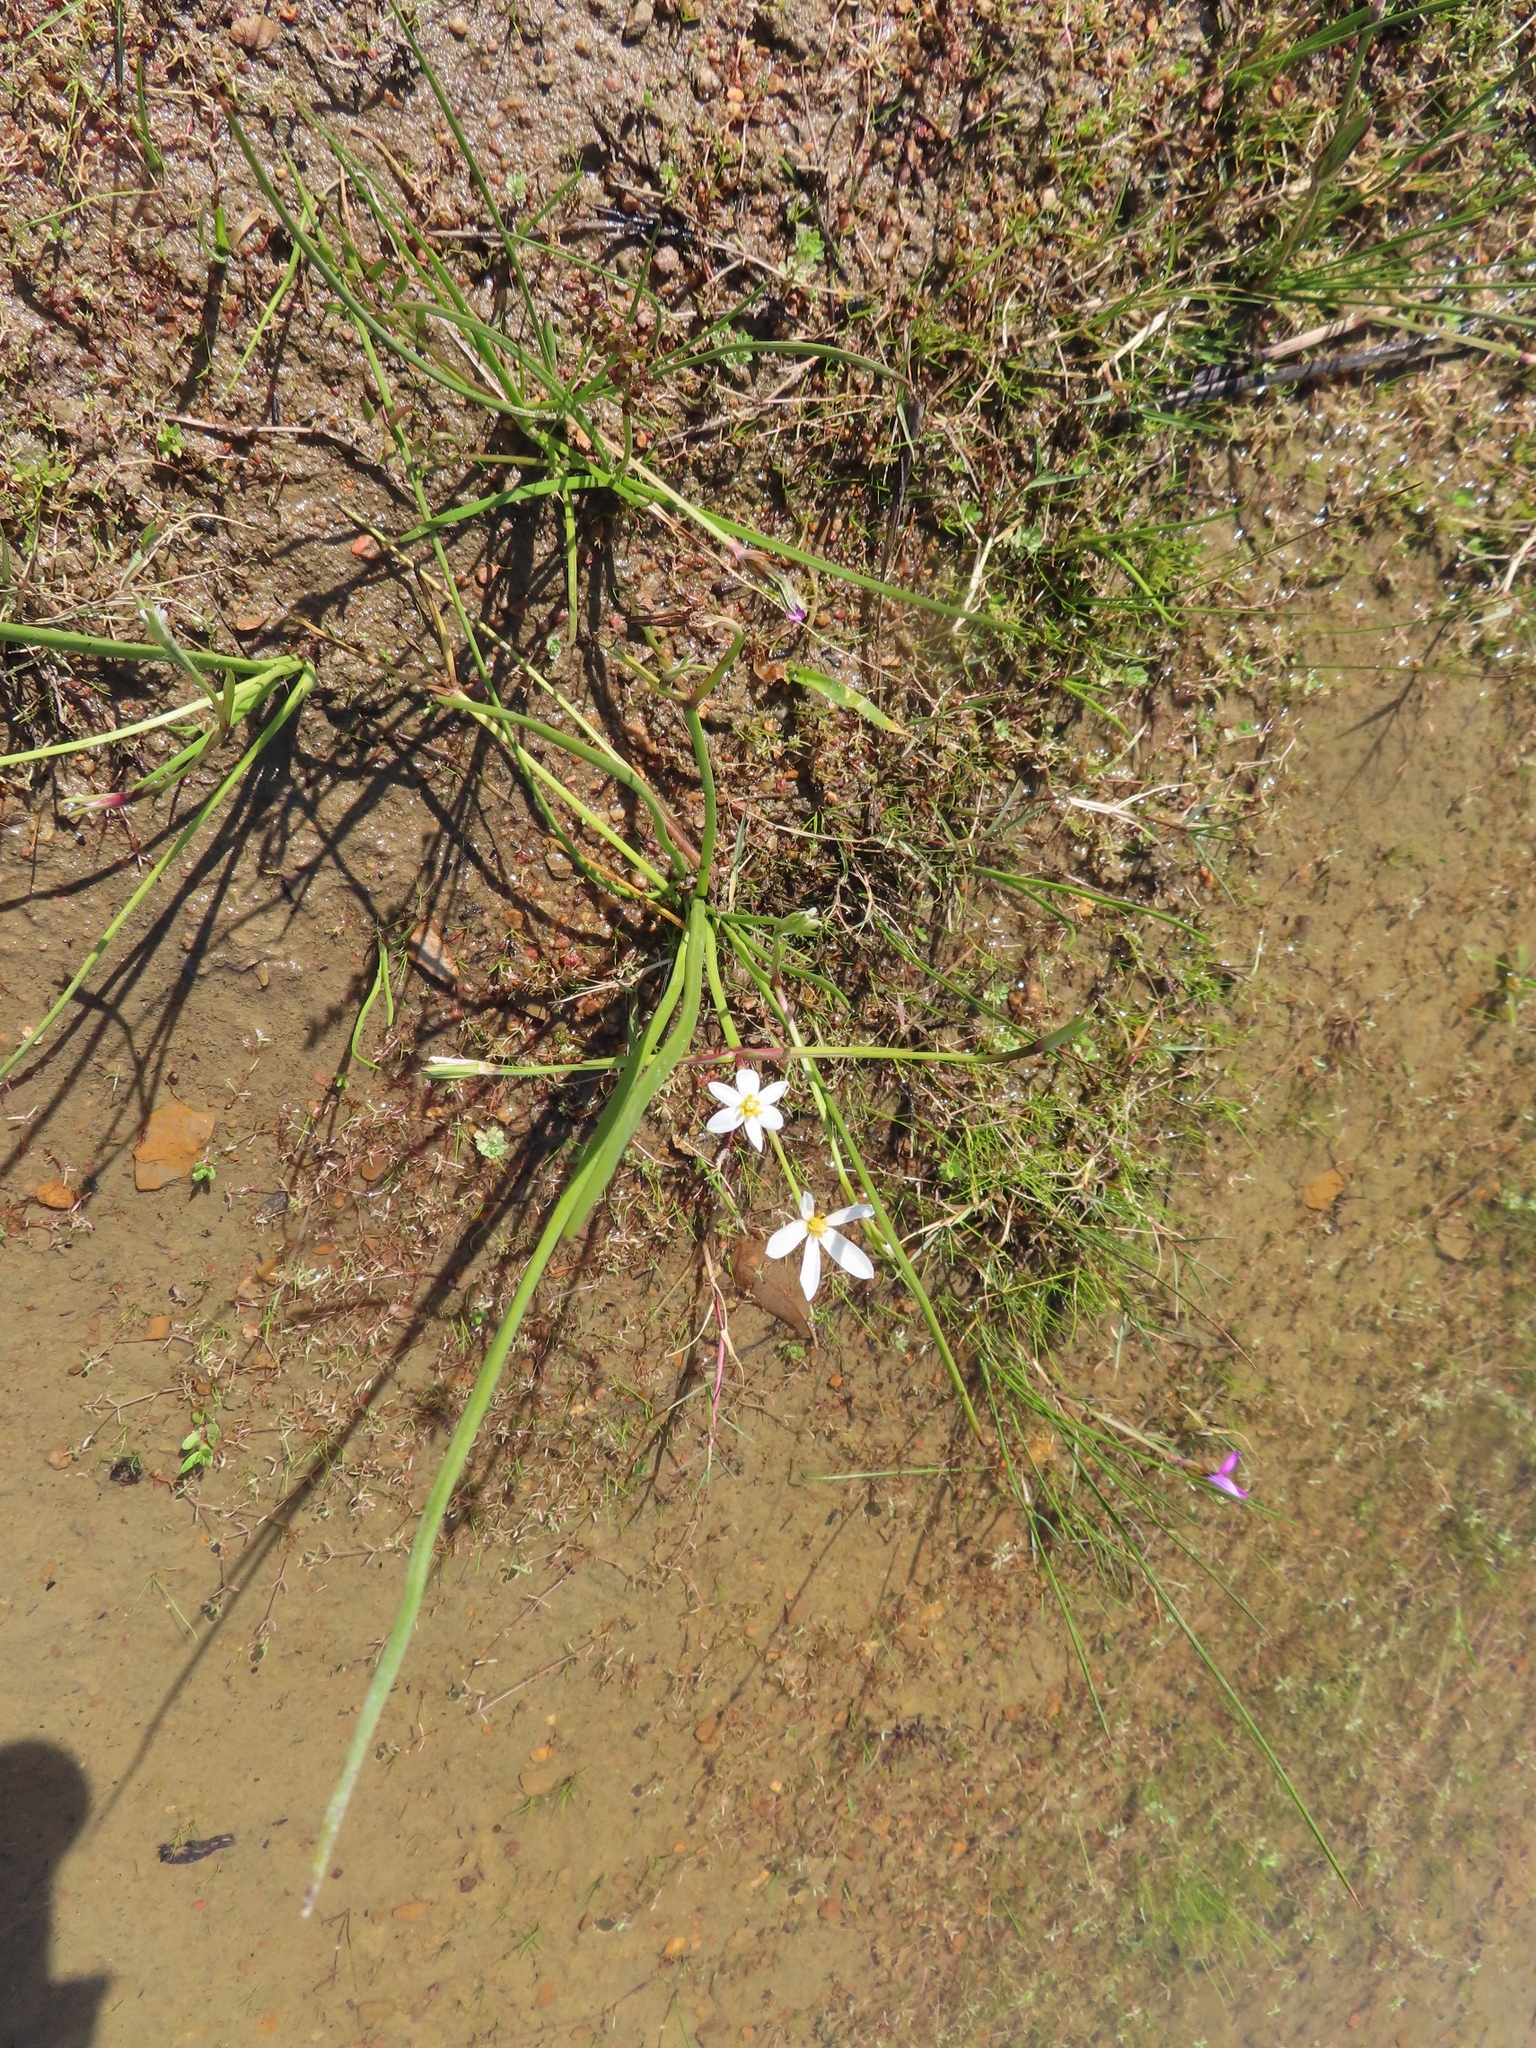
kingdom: Plantae
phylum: Tracheophyta
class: Liliopsida
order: Asparagales
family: Hypoxidaceae
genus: Pauridia
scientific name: Pauridia aquatica
